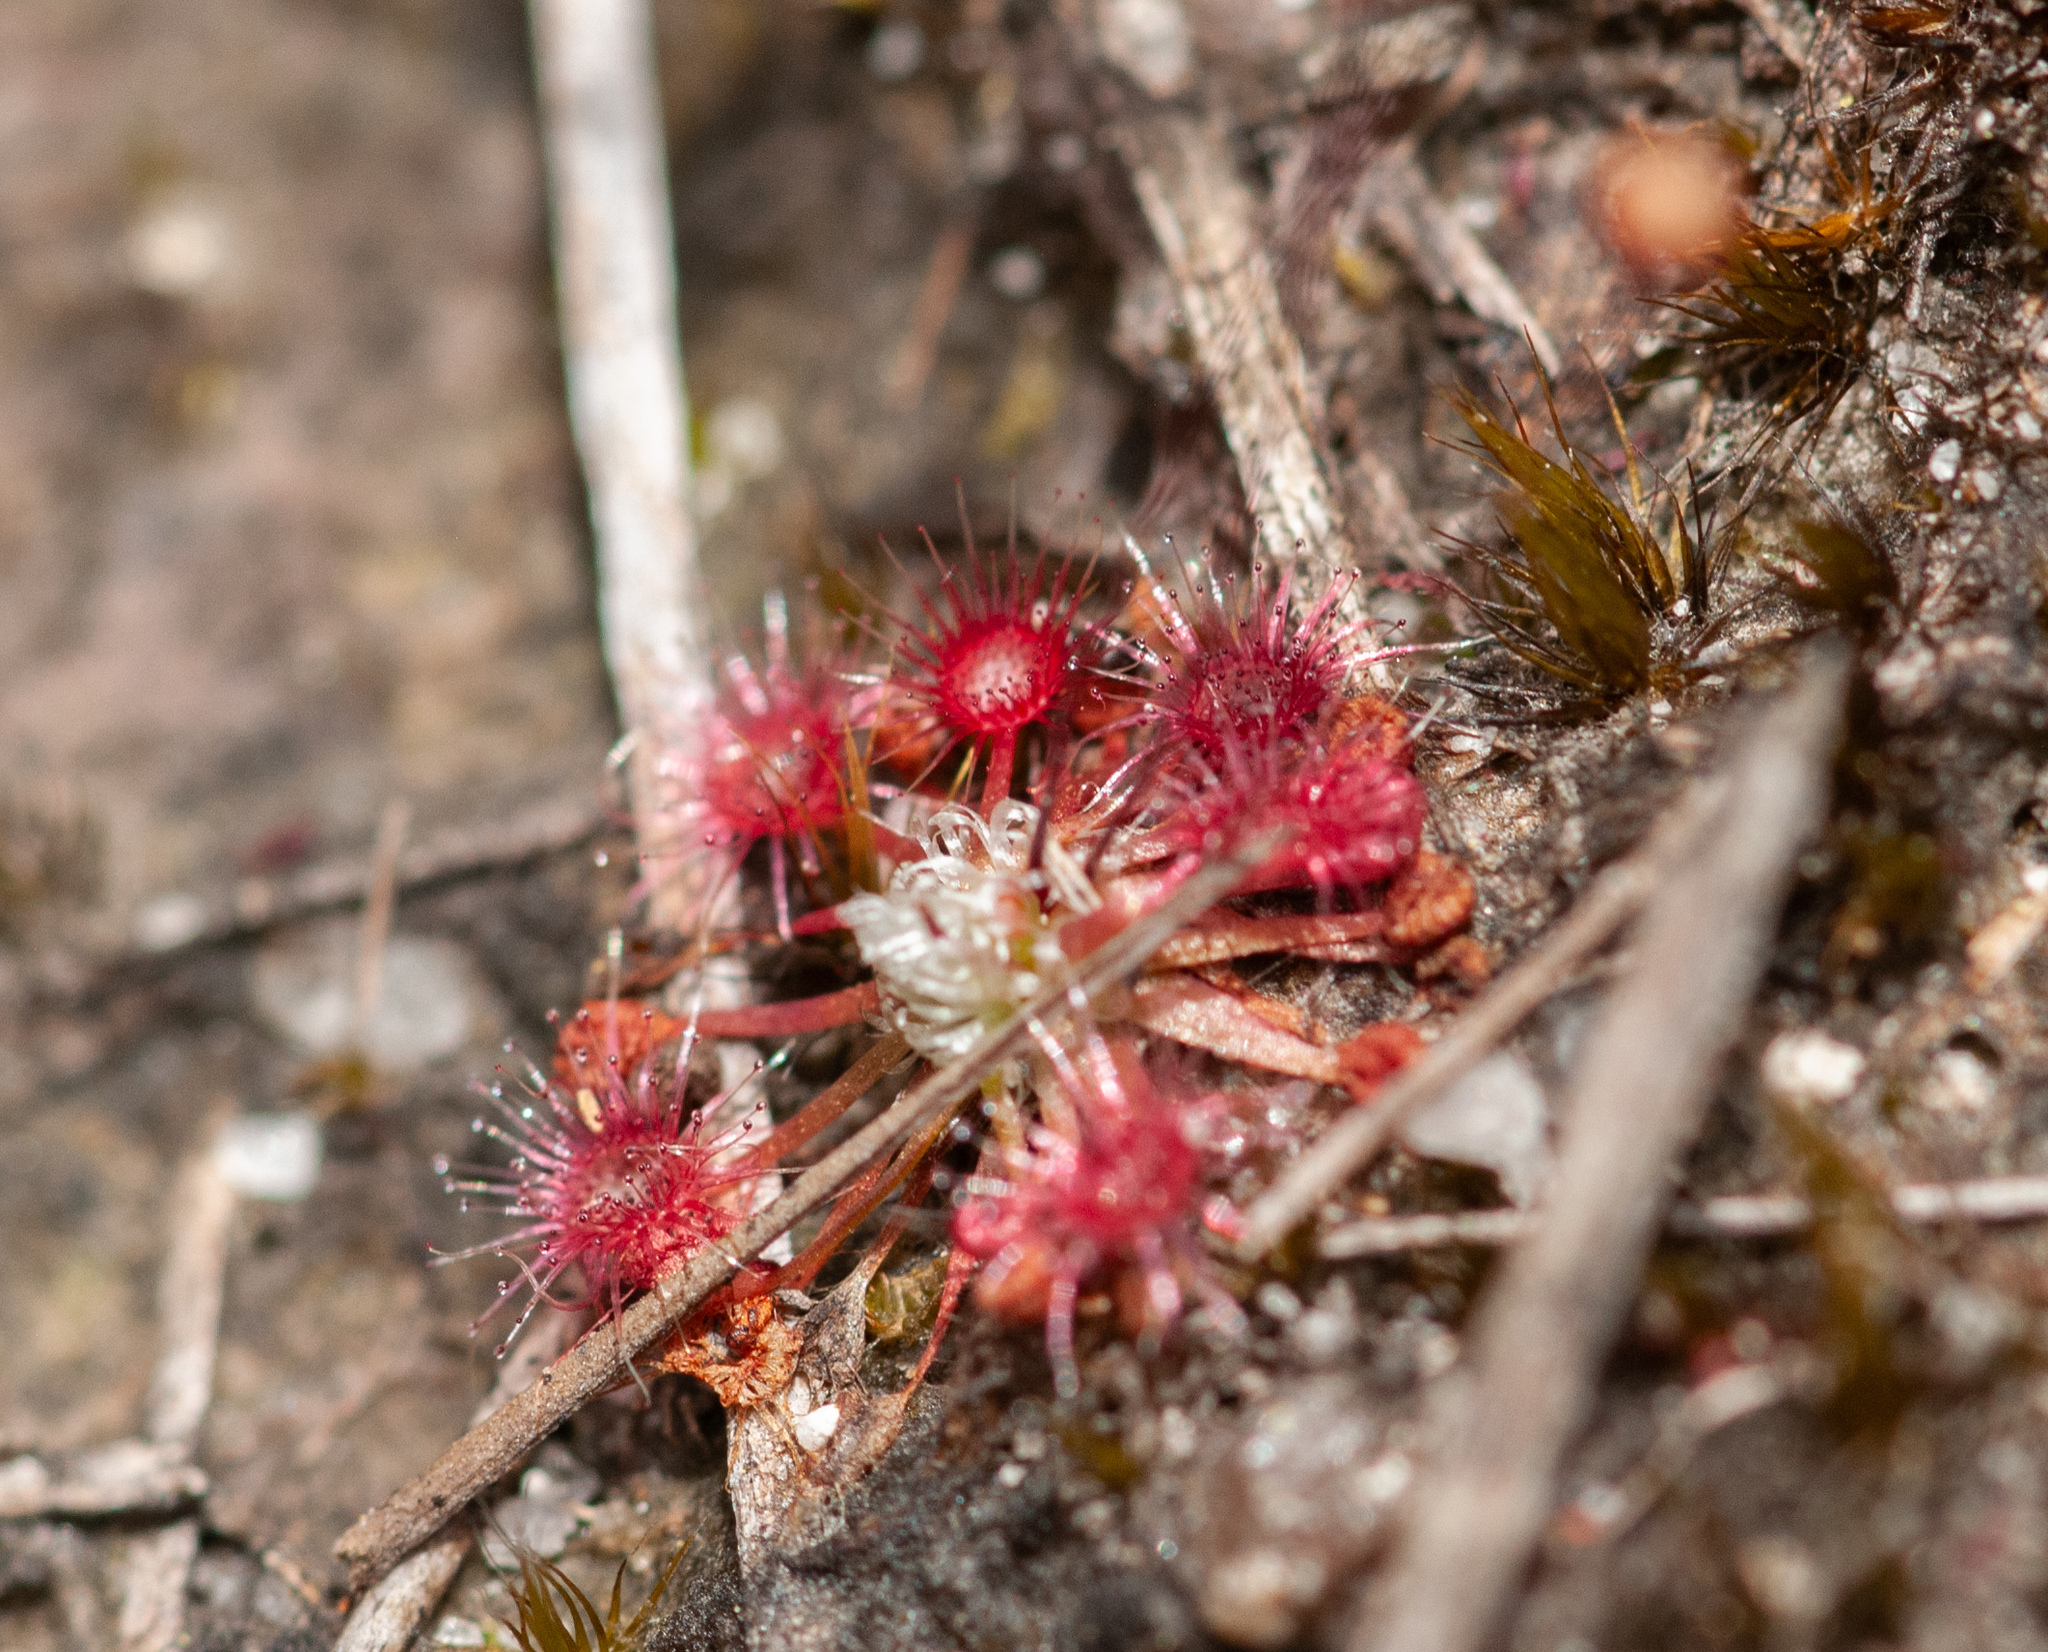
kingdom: Plantae
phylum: Tracheophyta
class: Magnoliopsida
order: Caryophyllales
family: Droseraceae
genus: Drosera
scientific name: Drosera pygmaea
